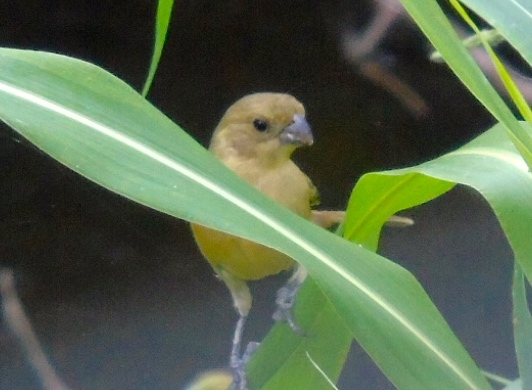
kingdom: Animalia
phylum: Chordata
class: Aves
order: Passeriformes
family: Thraupidae
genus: Sporophila
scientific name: Sporophila torqueola
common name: White-collared seedeater
